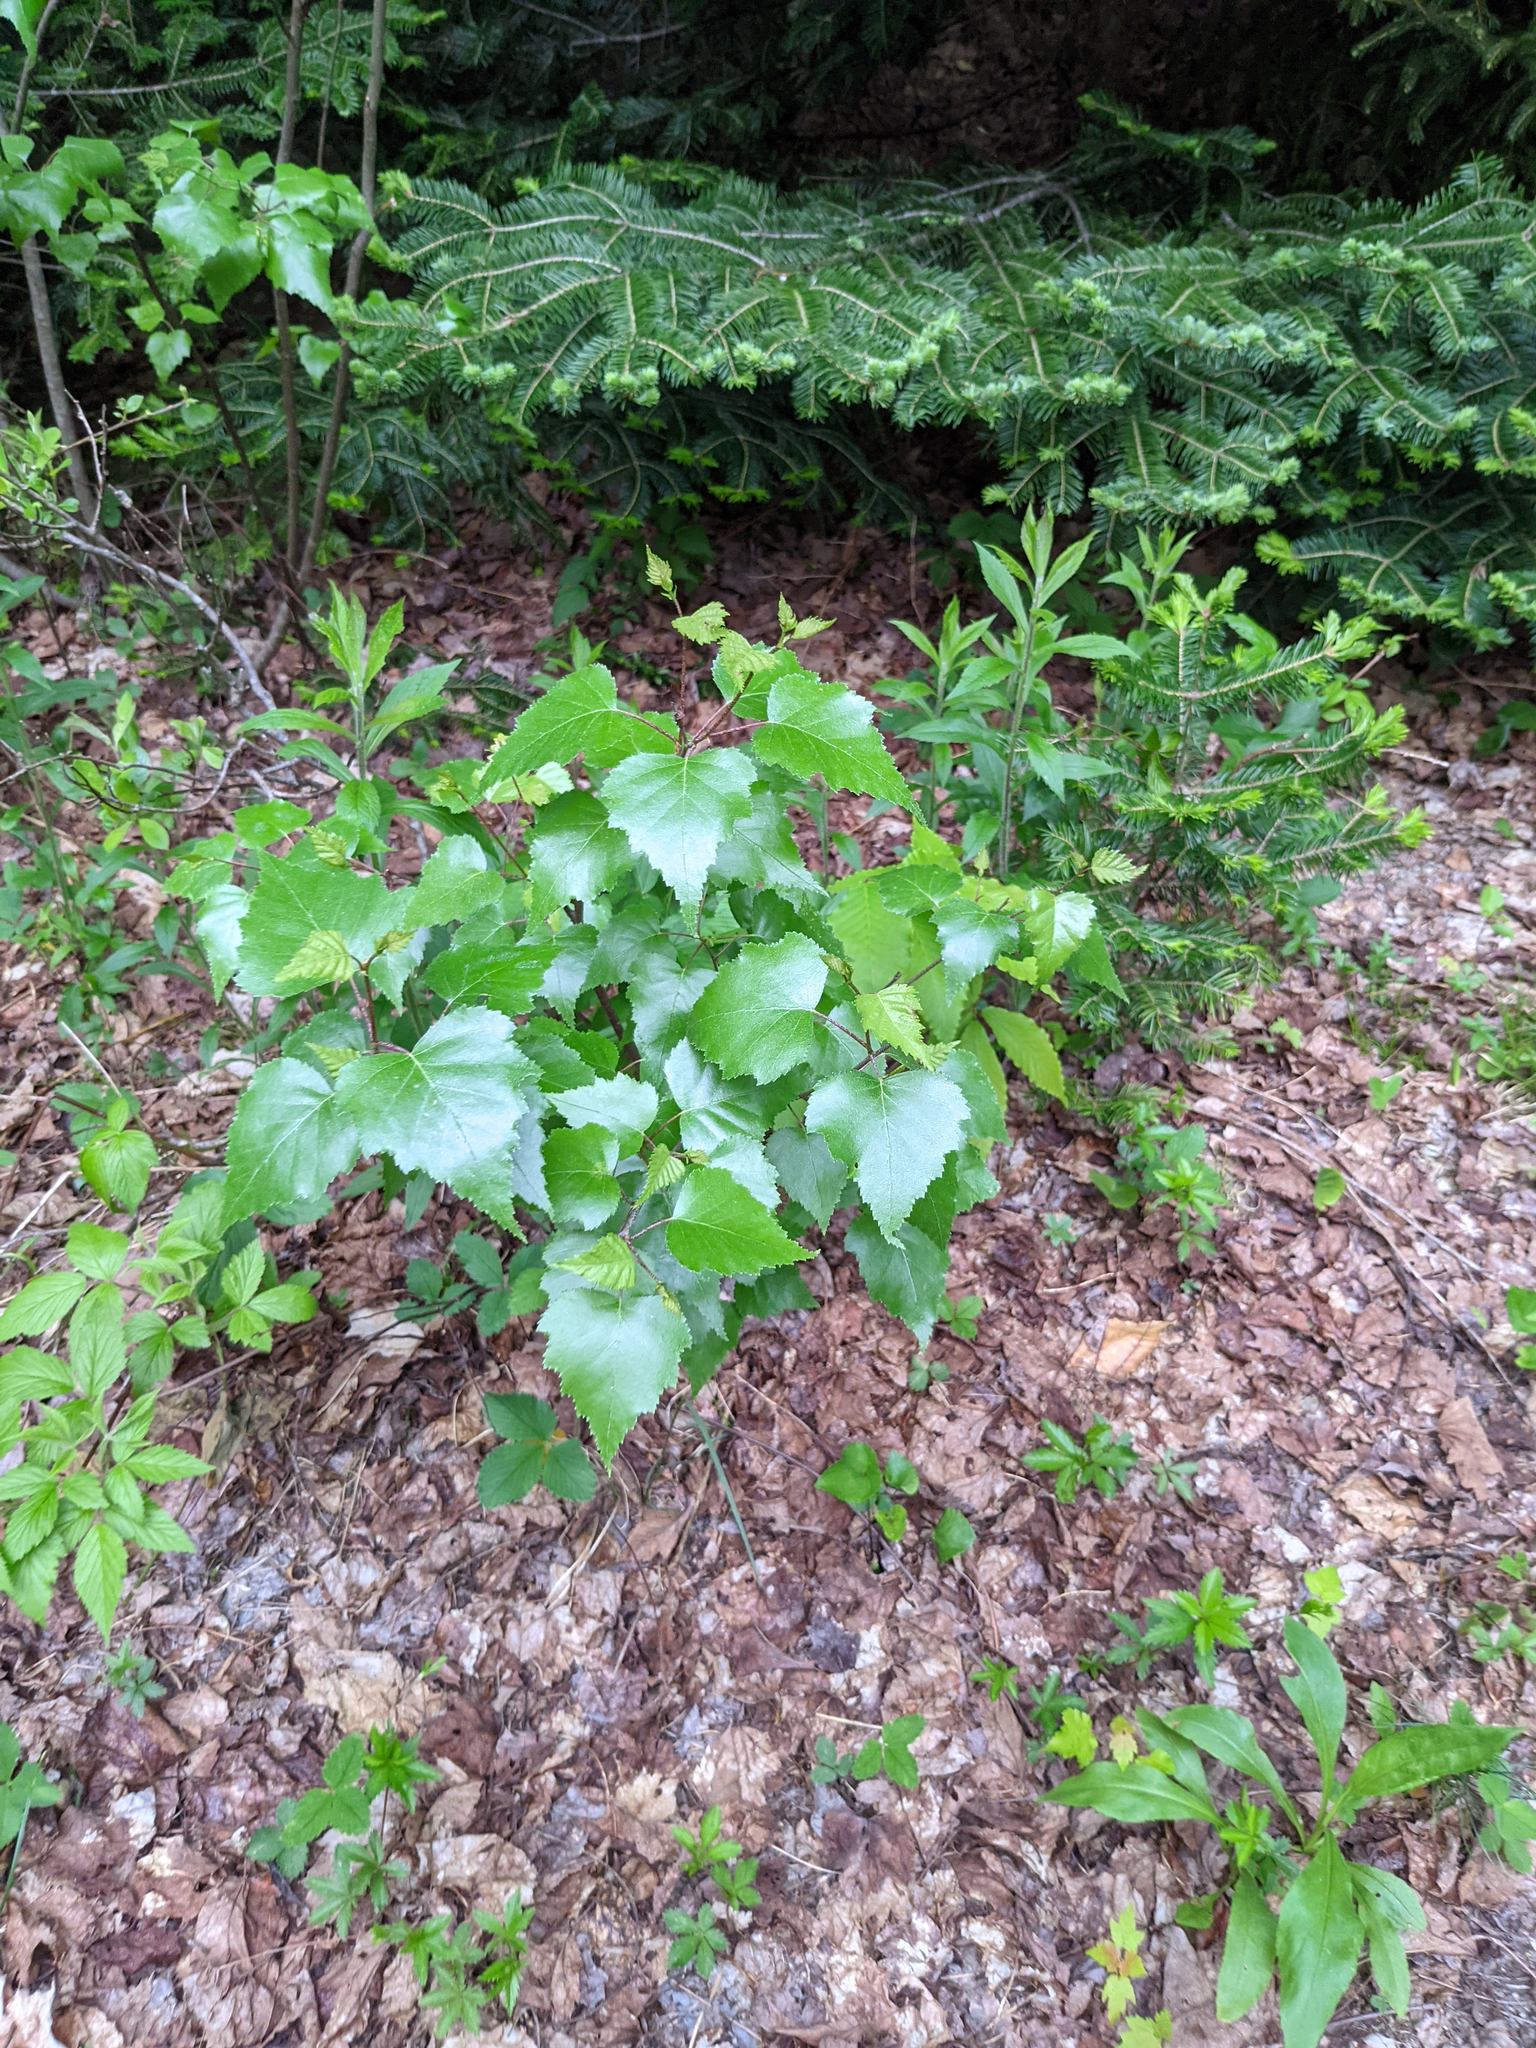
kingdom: Plantae
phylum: Tracheophyta
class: Magnoliopsida
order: Fagales
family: Betulaceae
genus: Betula
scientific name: Betula populifolia
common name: Fire birch
